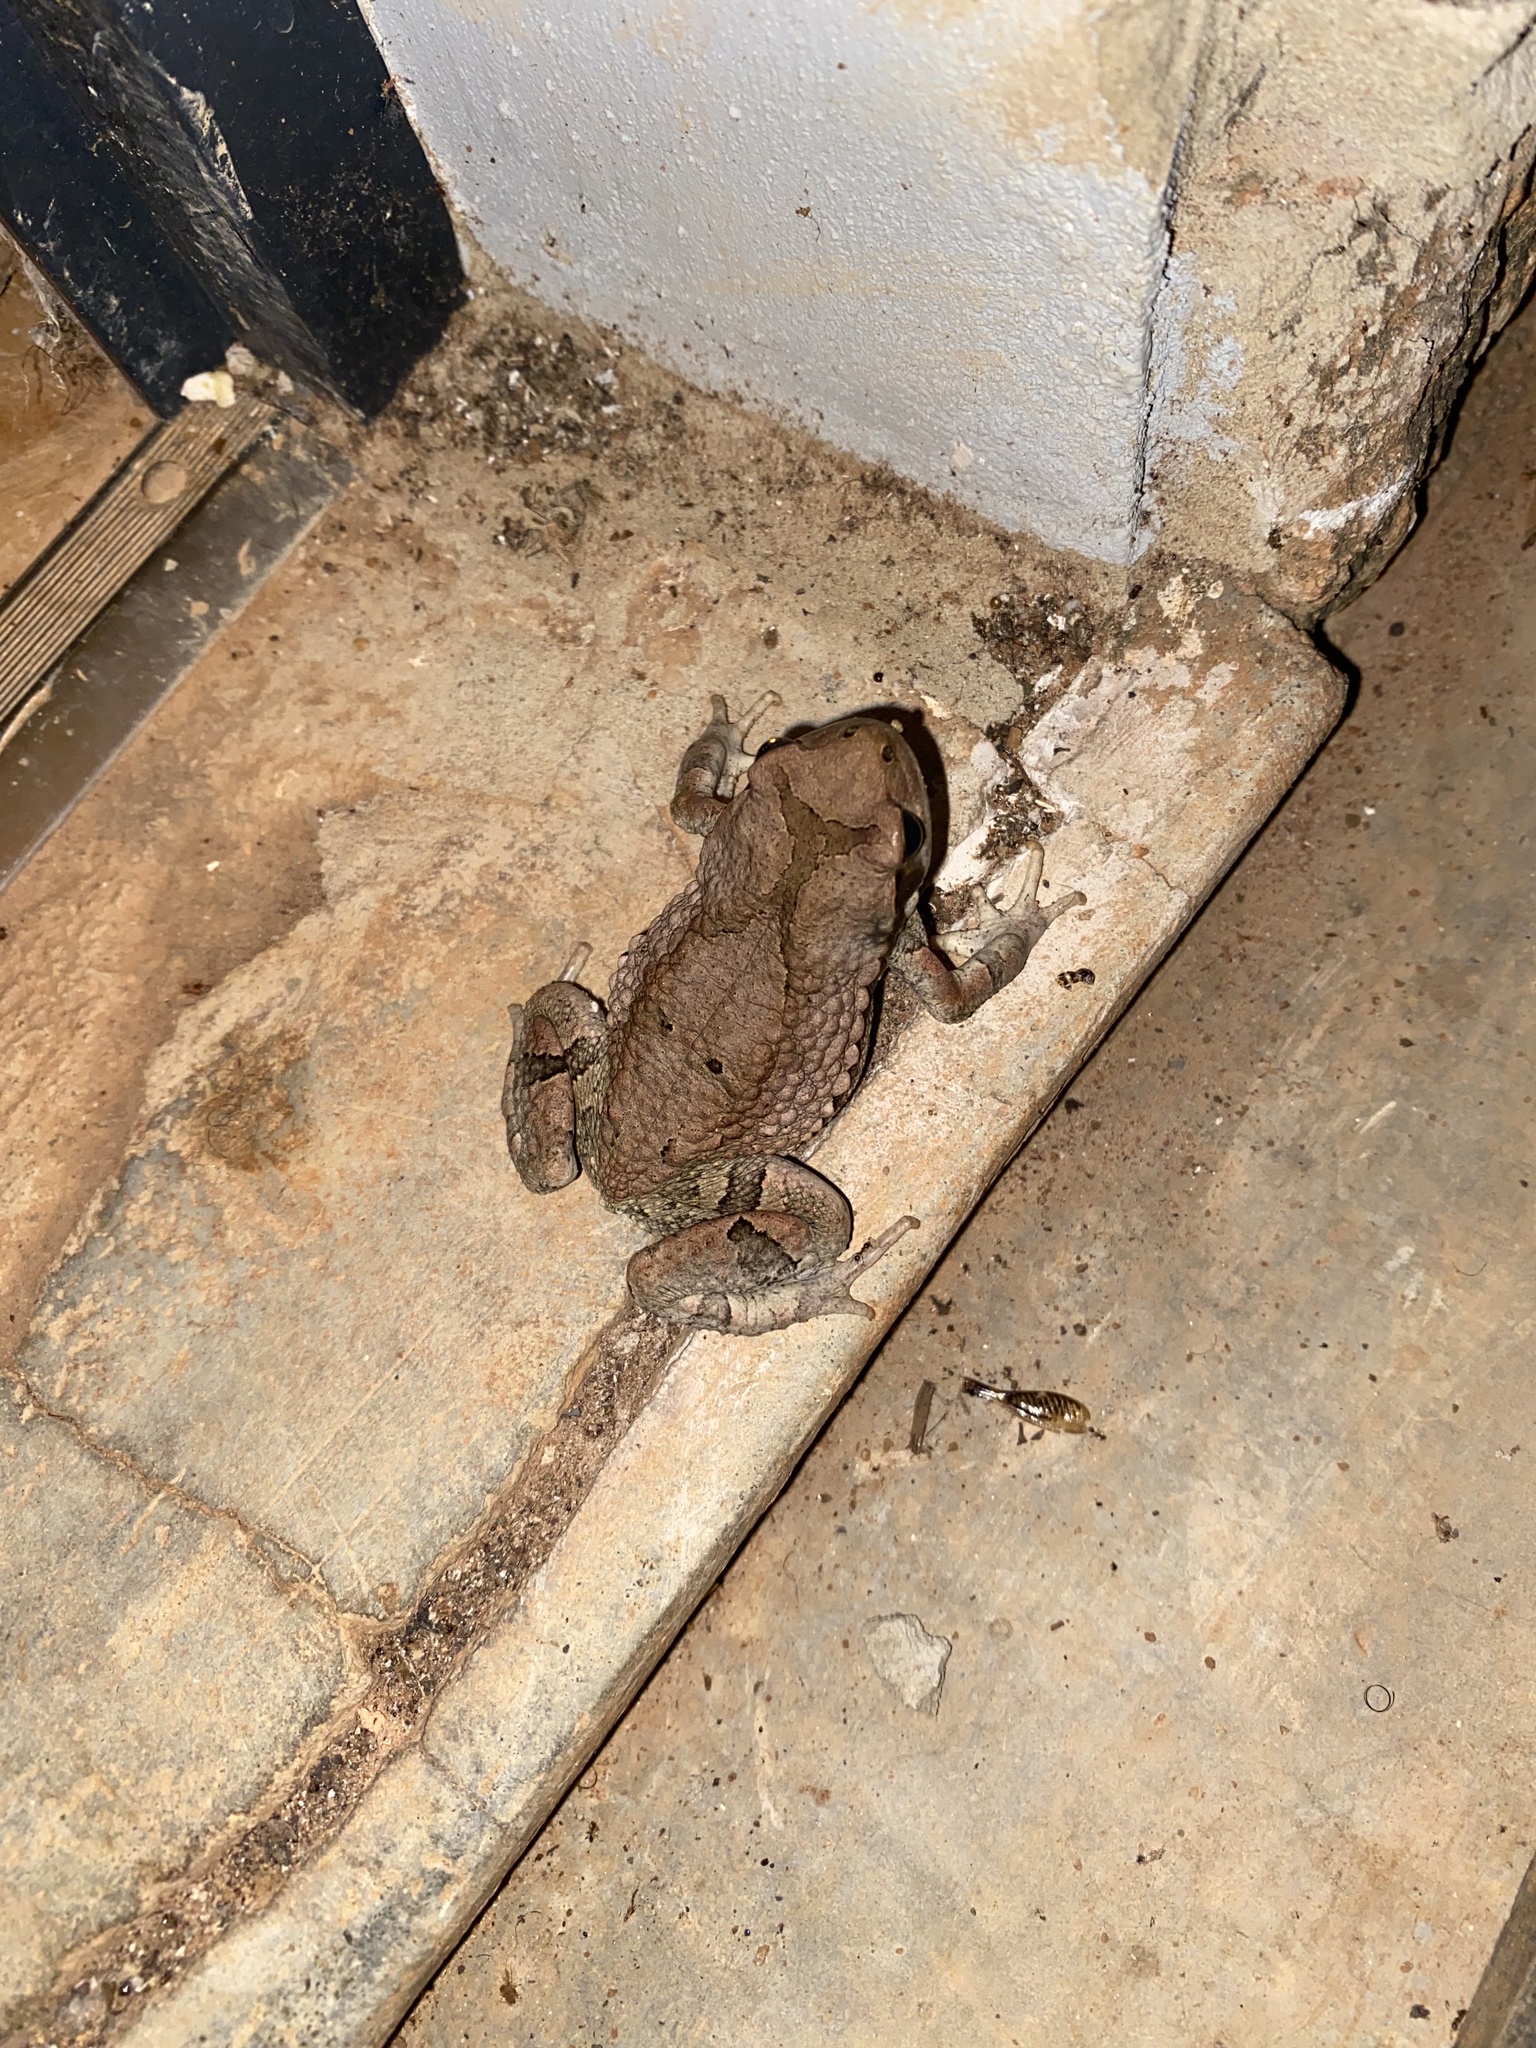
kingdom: Animalia
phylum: Chordata
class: Amphibia
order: Anura
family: Bufonidae
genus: Schismaderma
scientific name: Schismaderma carens
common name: African split-skin toad
